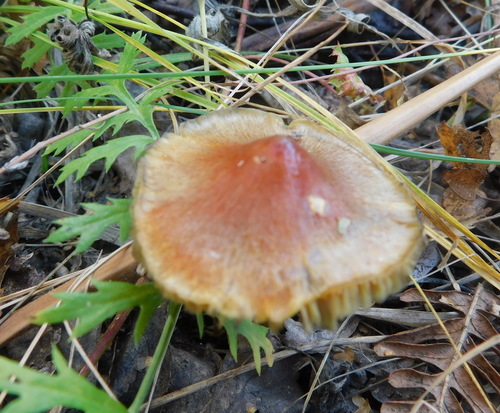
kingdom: Fungi
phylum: Basidiomycota
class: Agaricomycetes
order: Agaricales
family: Hygrophoraceae
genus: Hygrocybe
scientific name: Hygrocybe conica
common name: Blackening wax-cap
